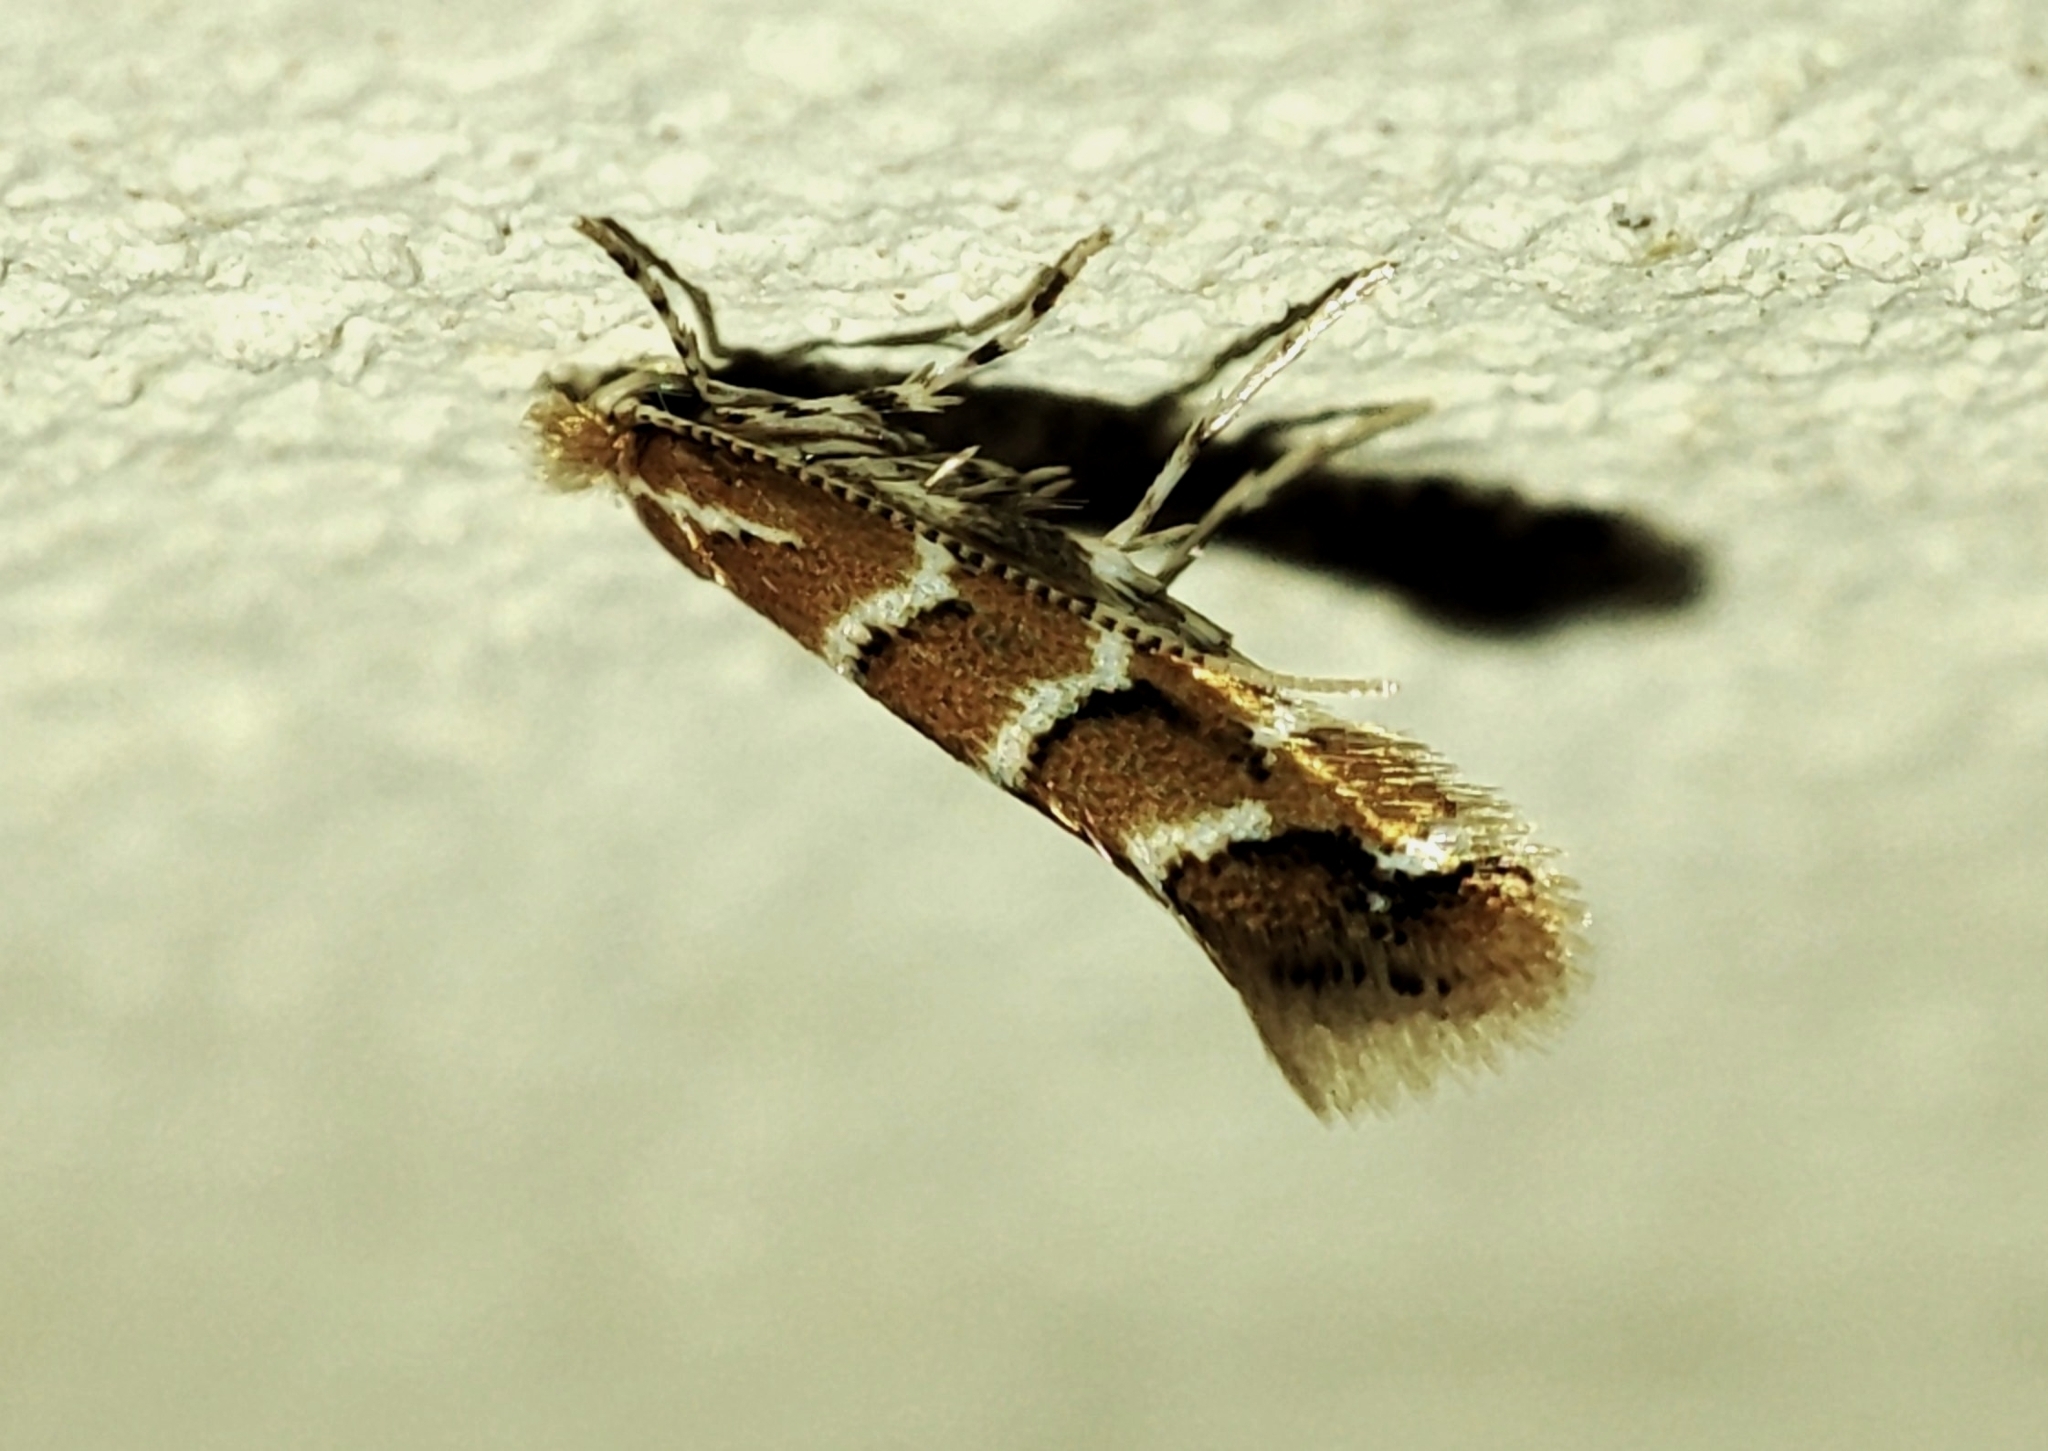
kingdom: Animalia
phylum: Arthropoda
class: Insecta
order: Lepidoptera
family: Gracillariidae
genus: Cameraria
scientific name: Cameraria ohridella
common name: Horse-chestnut leaf-miner
